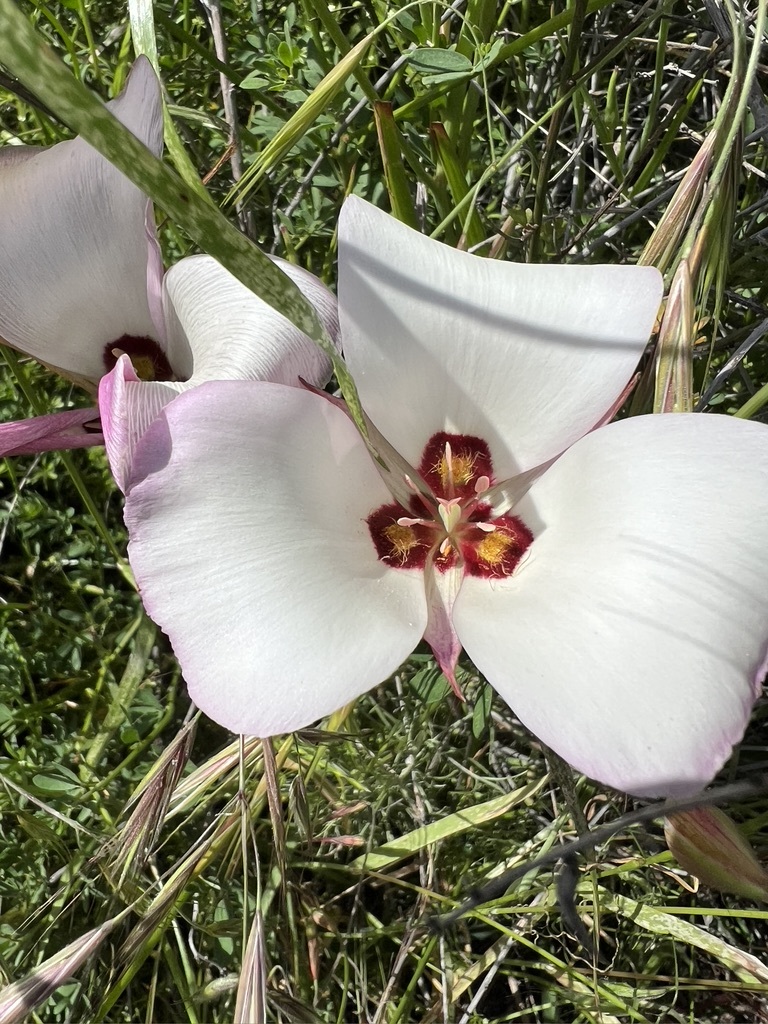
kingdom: Plantae
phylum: Tracheophyta
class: Liliopsida
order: Liliales
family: Liliaceae
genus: Calochortus
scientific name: Calochortus catalinae
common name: Catalina mariposa-lily
